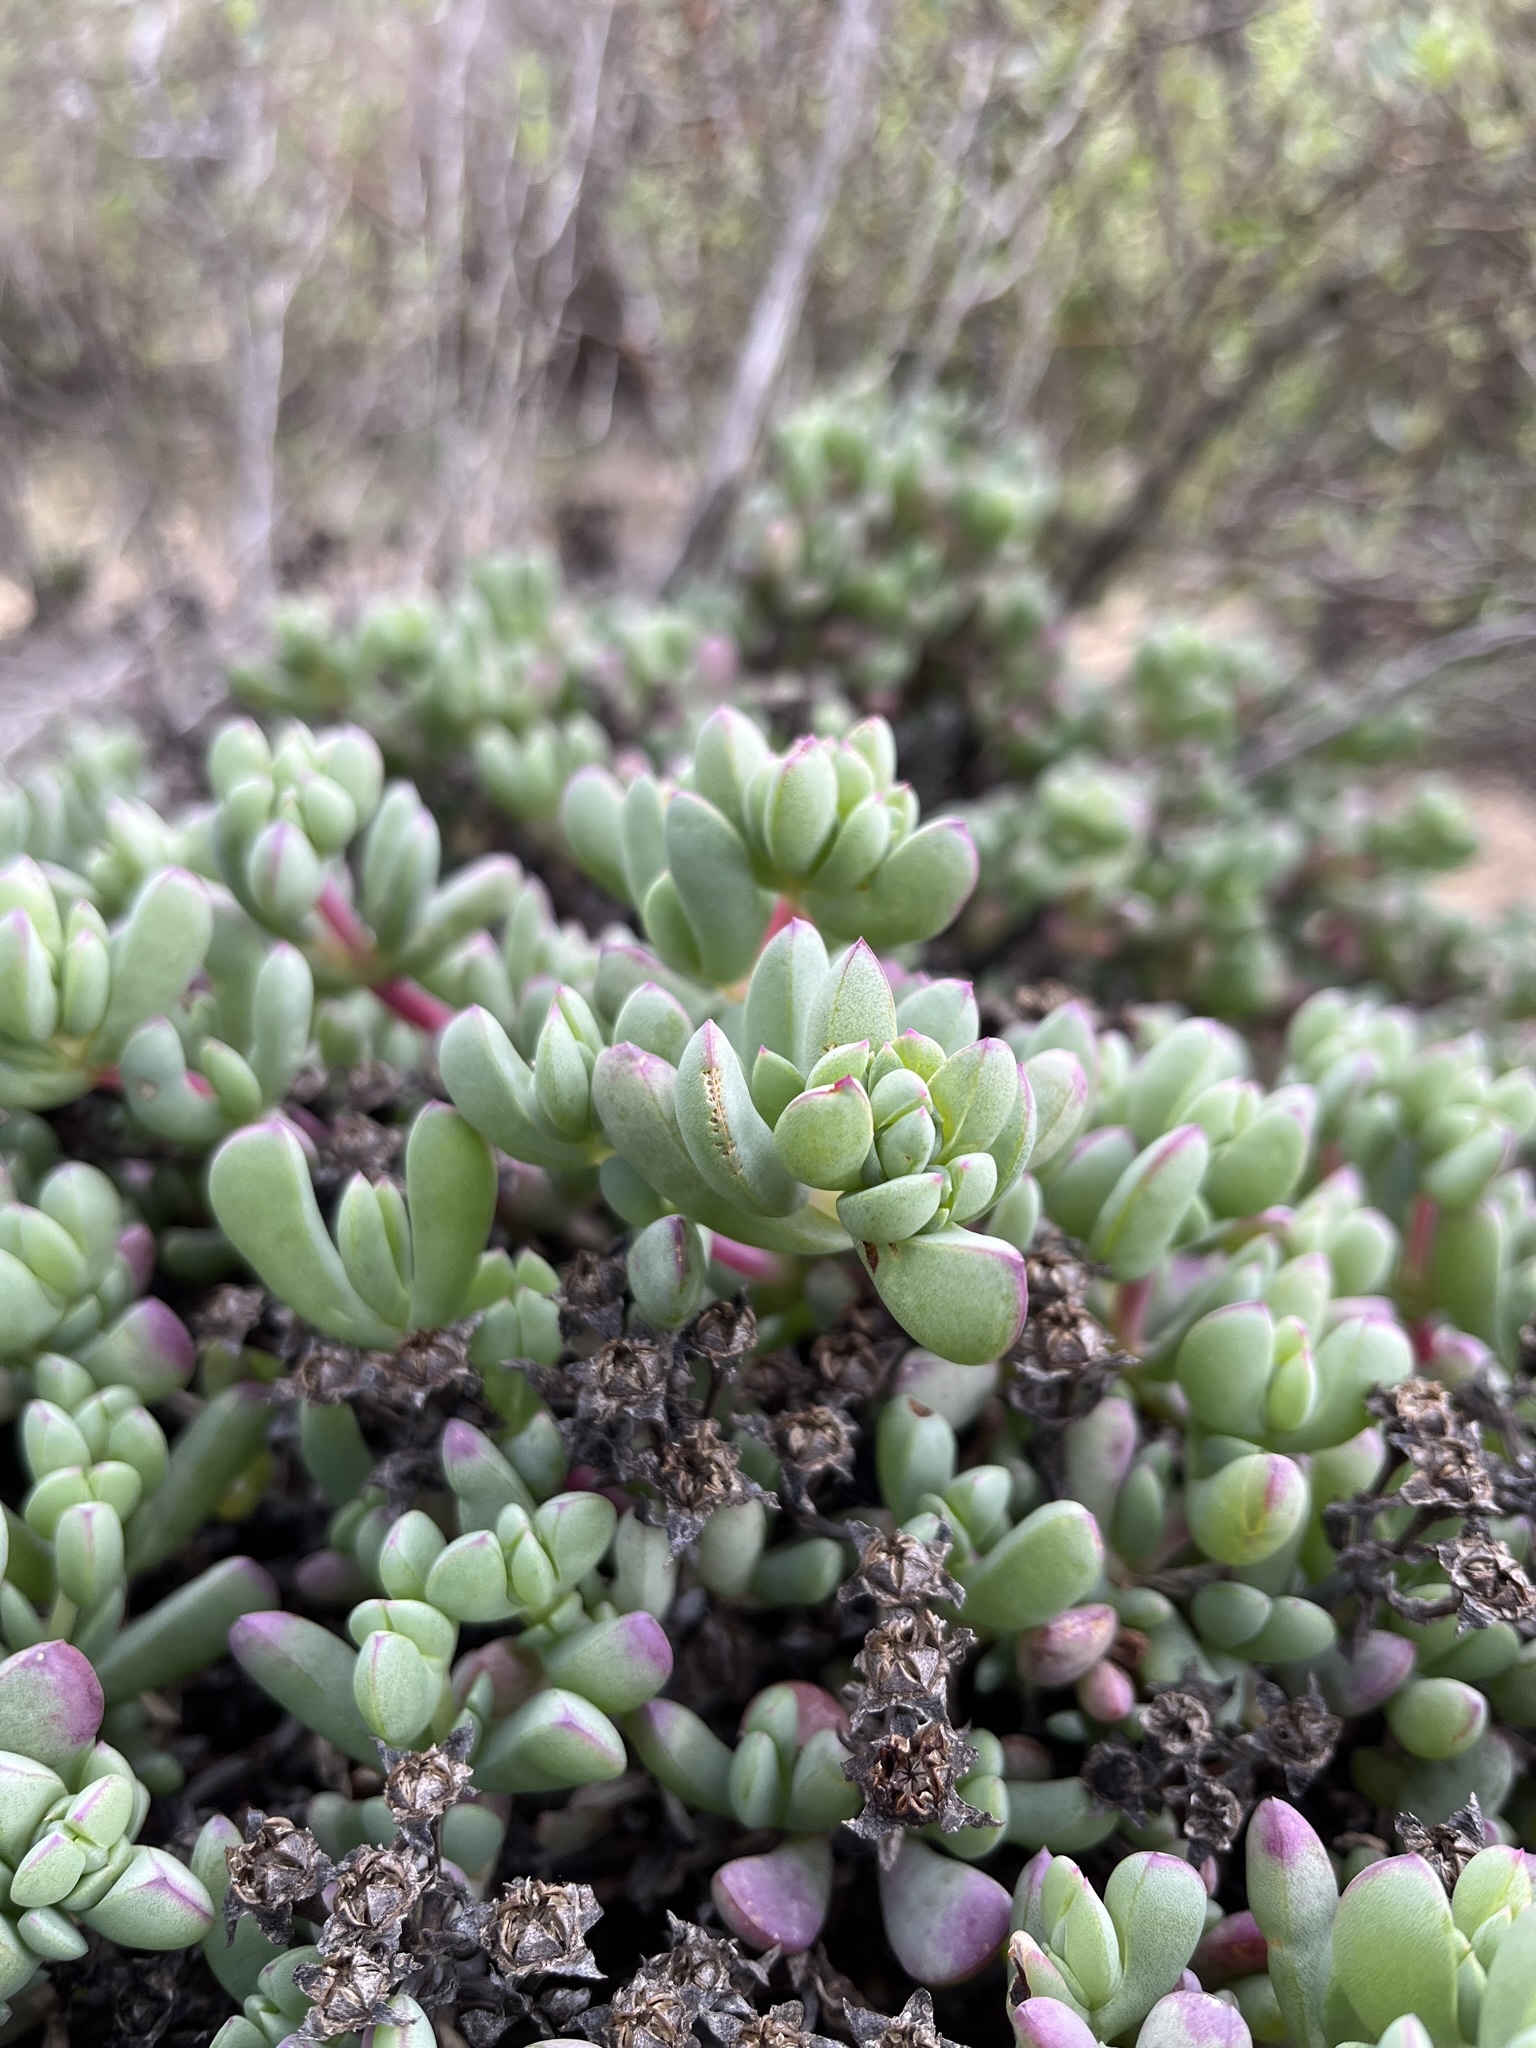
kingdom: Plantae
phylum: Tracheophyta
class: Magnoliopsida
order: Caryophyllales
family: Aizoaceae
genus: Oscularia
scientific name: Oscularia lunata
